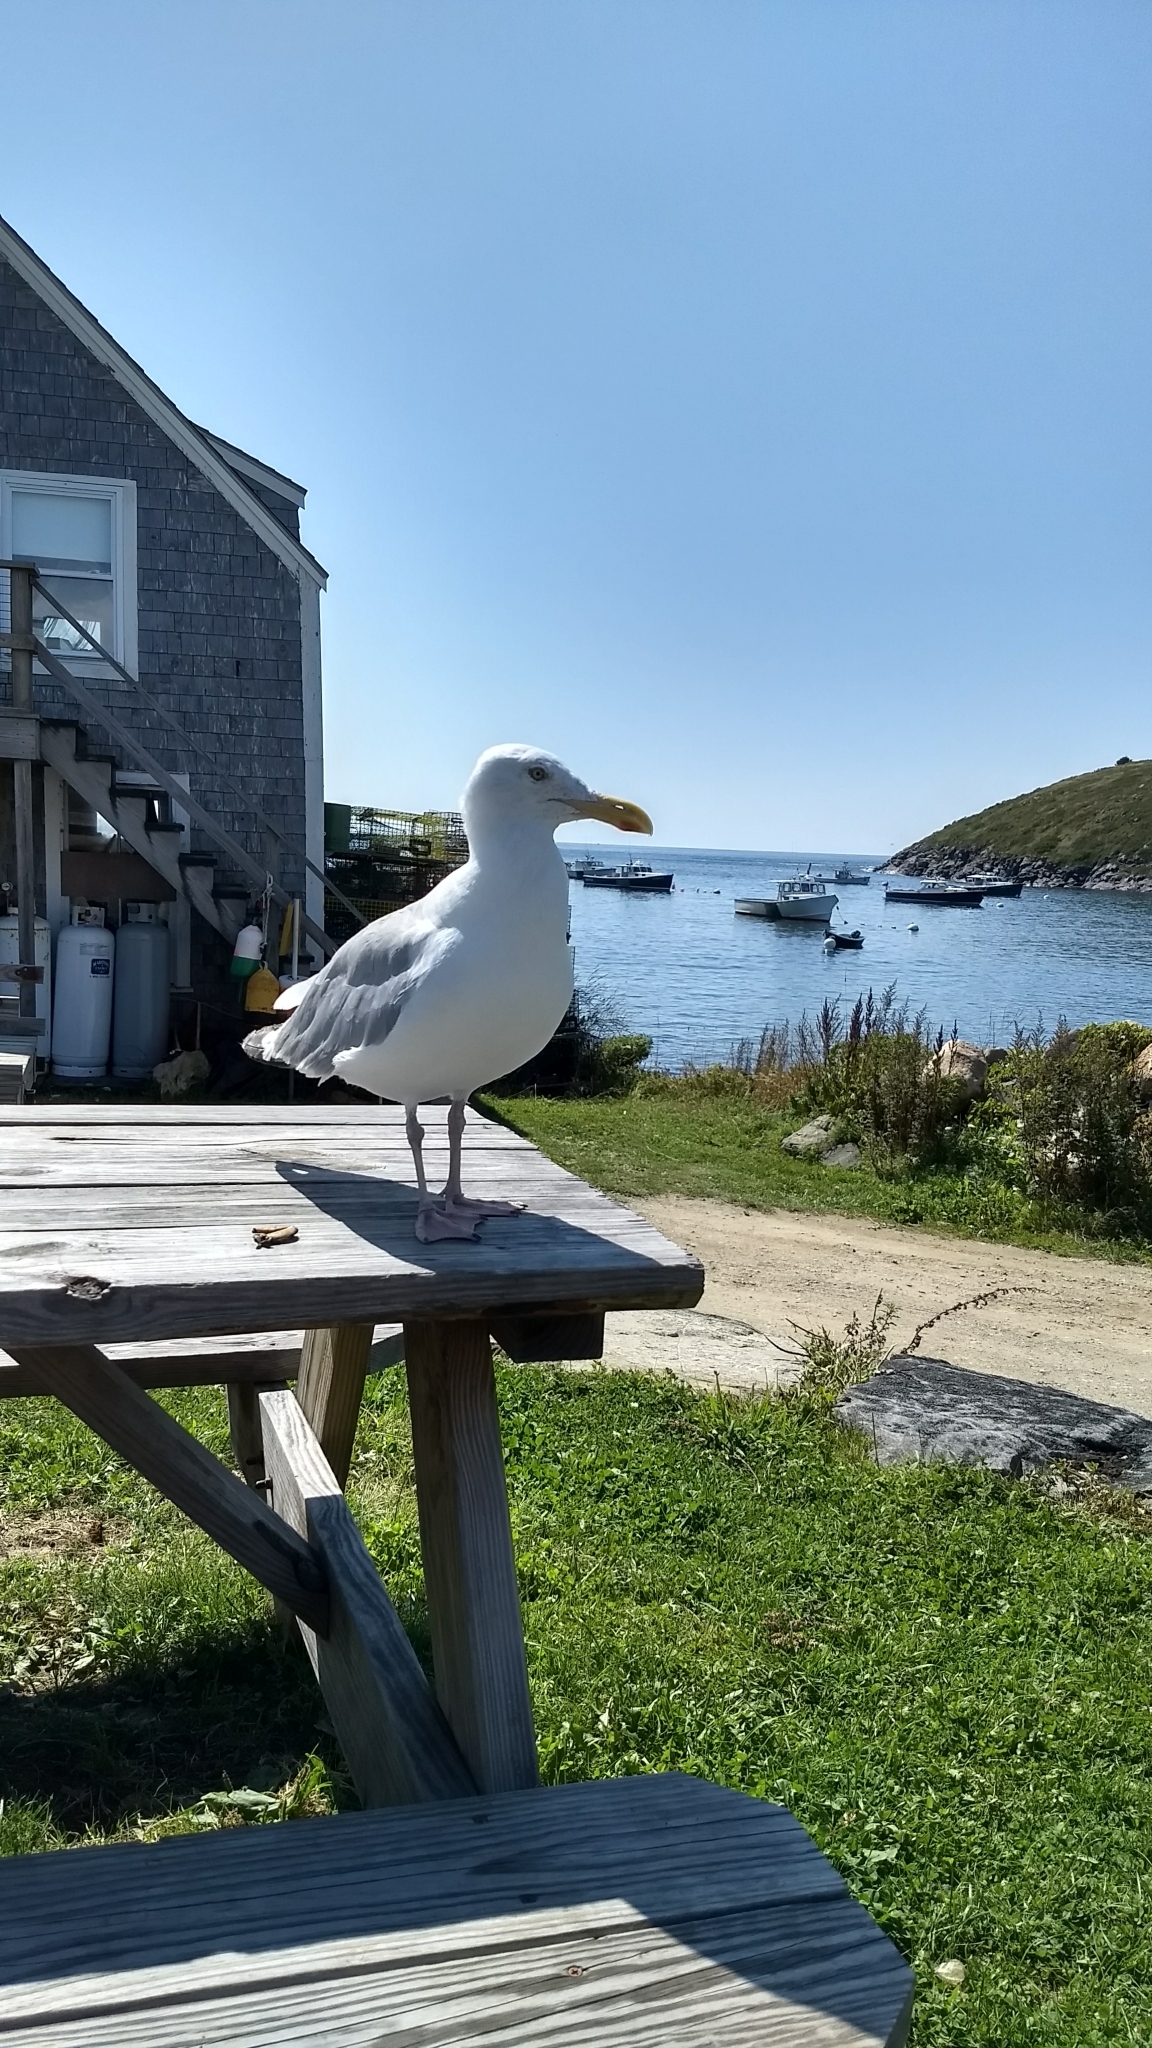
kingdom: Animalia
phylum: Chordata
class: Aves
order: Charadriiformes
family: Laridae
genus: Larus
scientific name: Larus argentatus
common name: Herring gull
